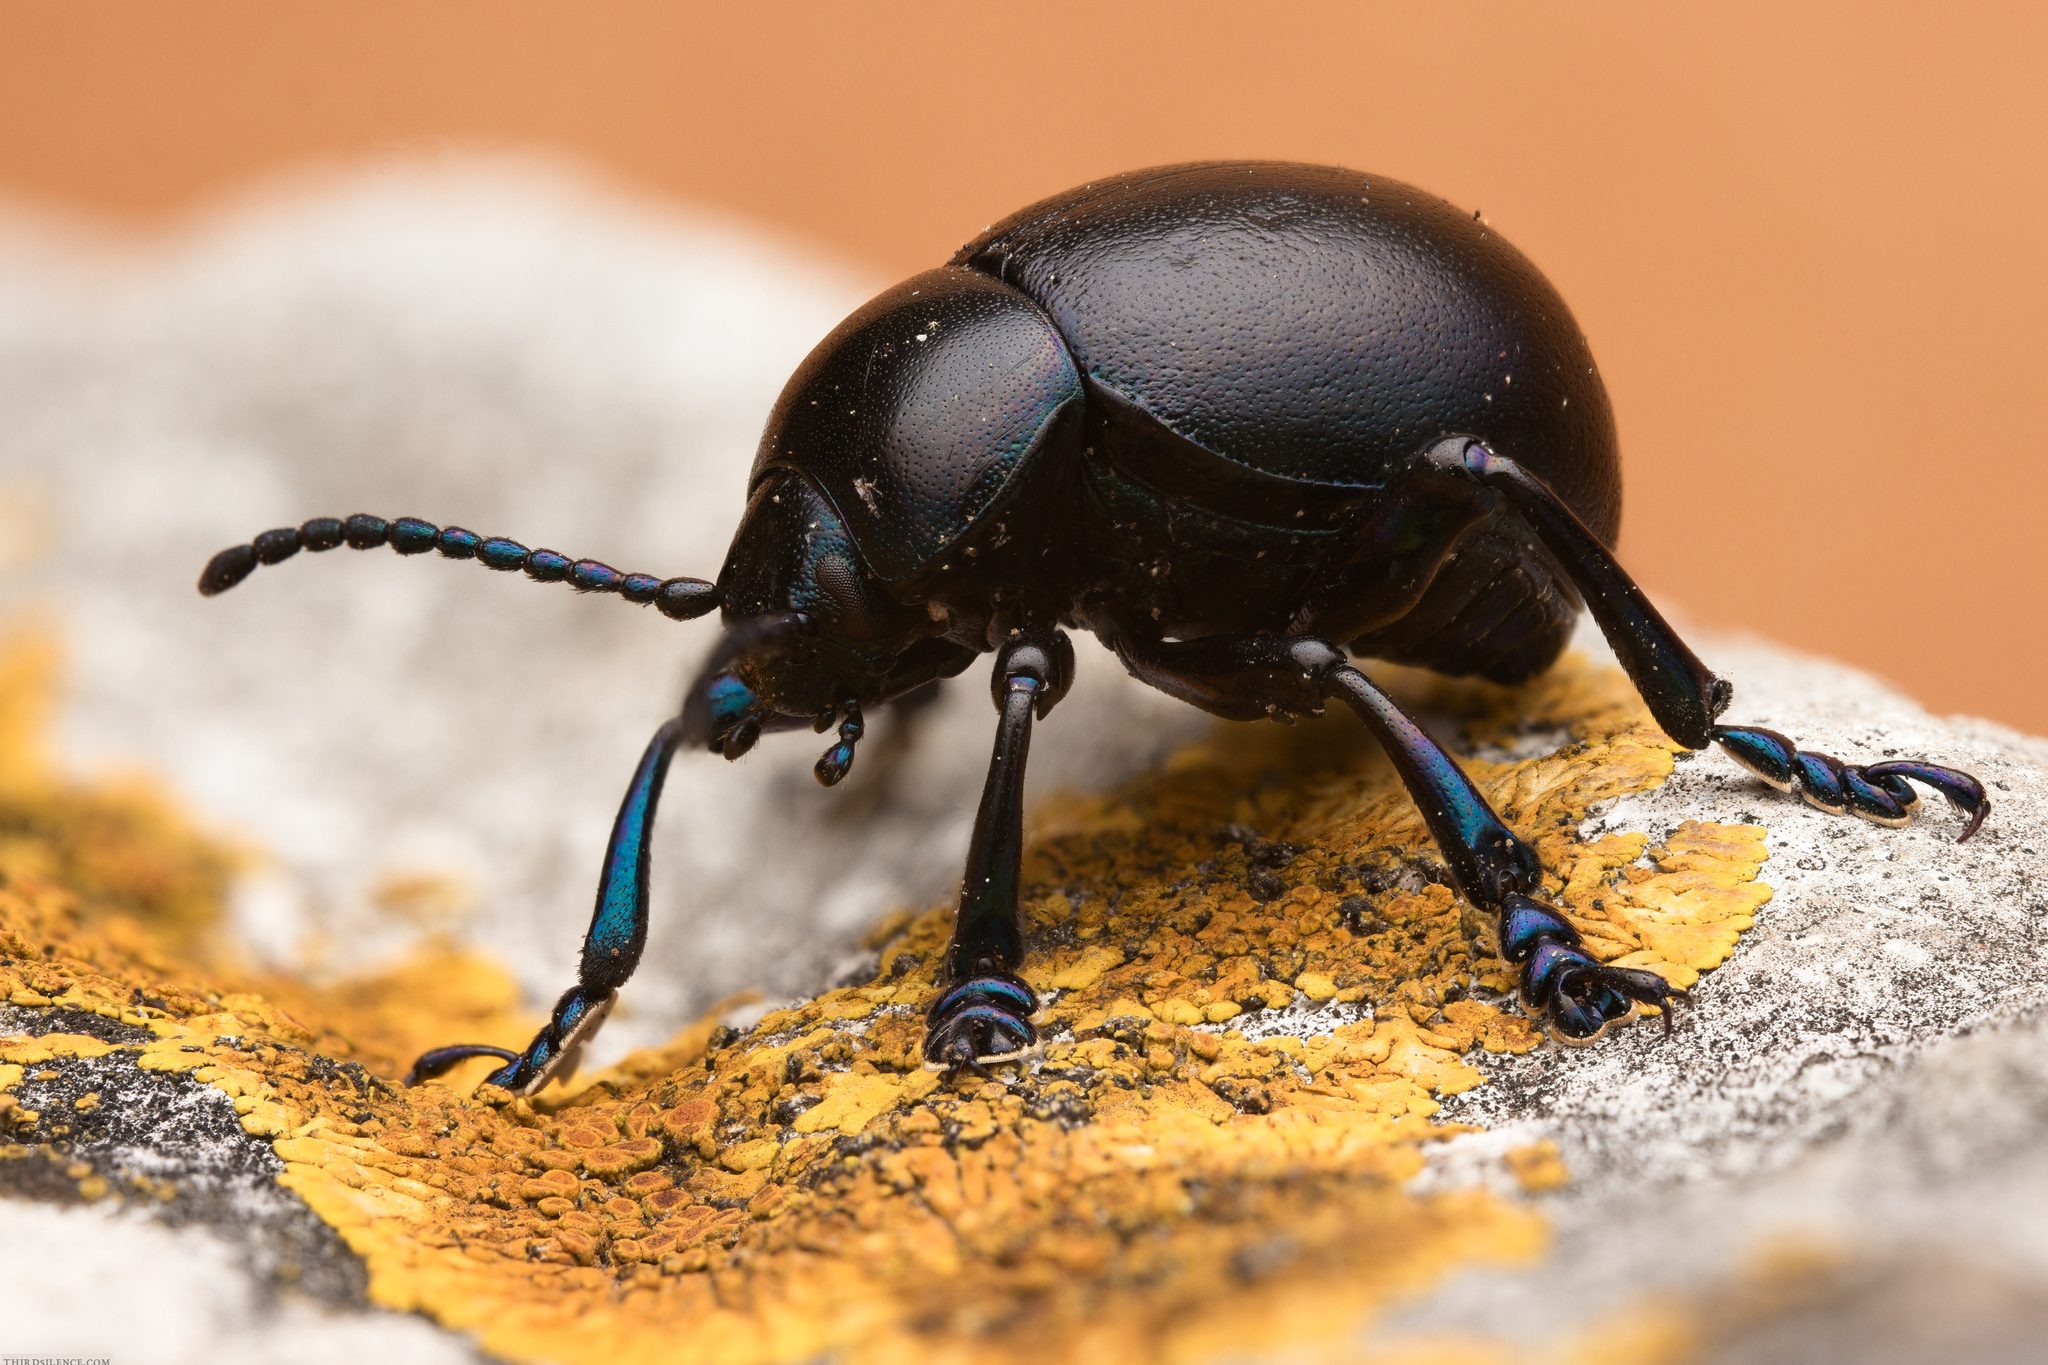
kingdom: Animalia
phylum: Arthropoda
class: Insecta
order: Coleoptera
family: Chrysomelidae
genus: Timarcha
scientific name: Timarcha nicaeensis
